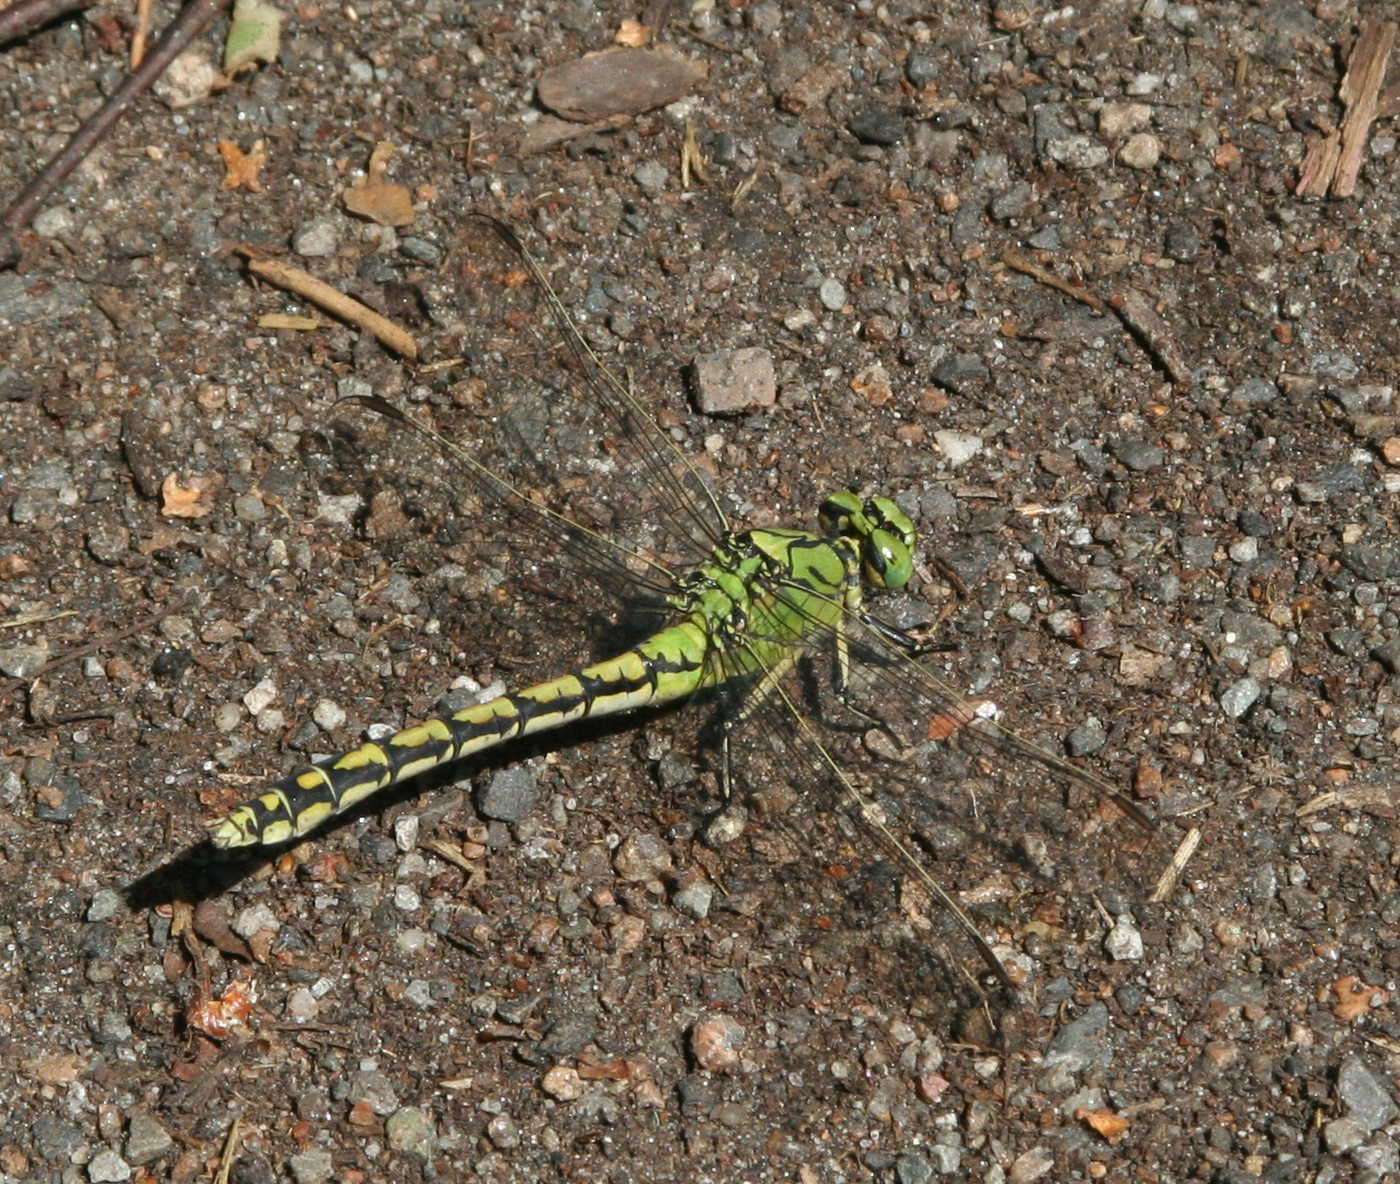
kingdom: Animalia
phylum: Arthropoda
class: Insecta
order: Odonata
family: Gomphidae
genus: Ophiogomphus
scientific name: Ophiogomphus cecilia
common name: Green snaketail
